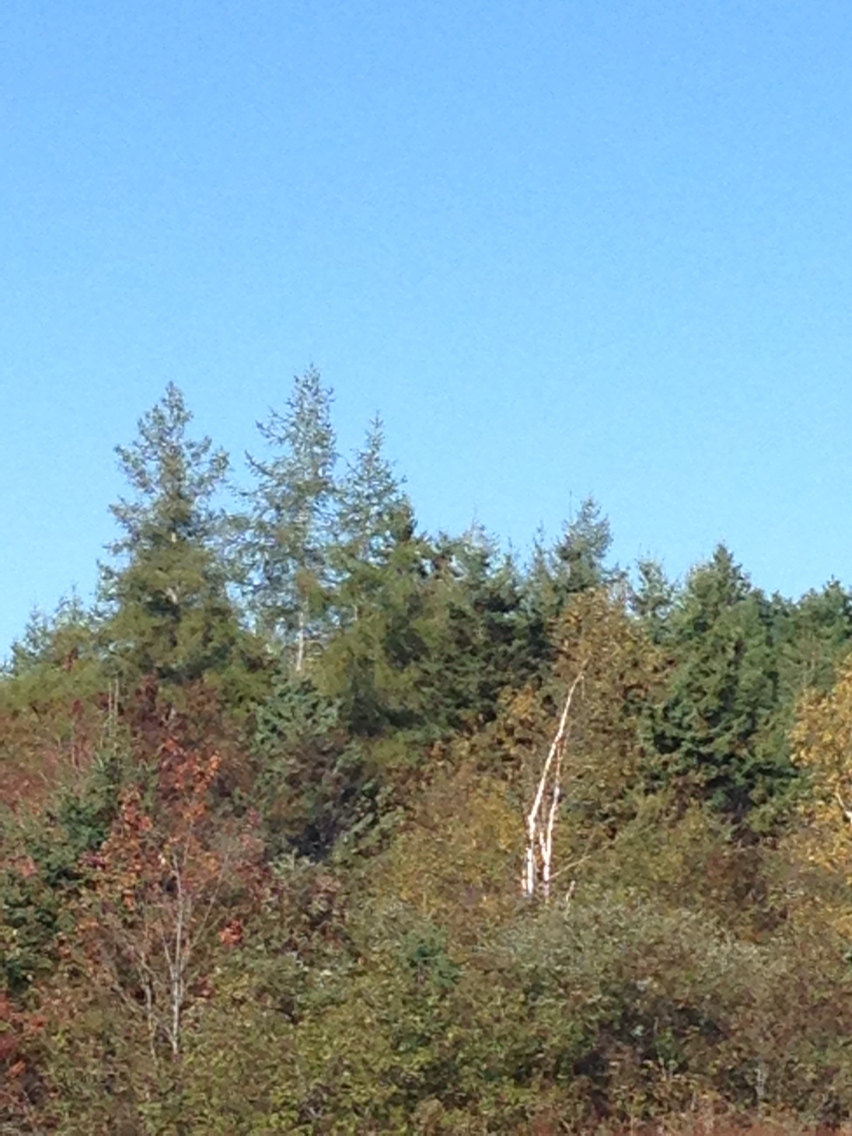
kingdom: Plantae
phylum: Tracheophyta
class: Pinopsida
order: Pinales
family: Pinaceae
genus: Larix
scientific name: Larix laricina
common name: American larch
